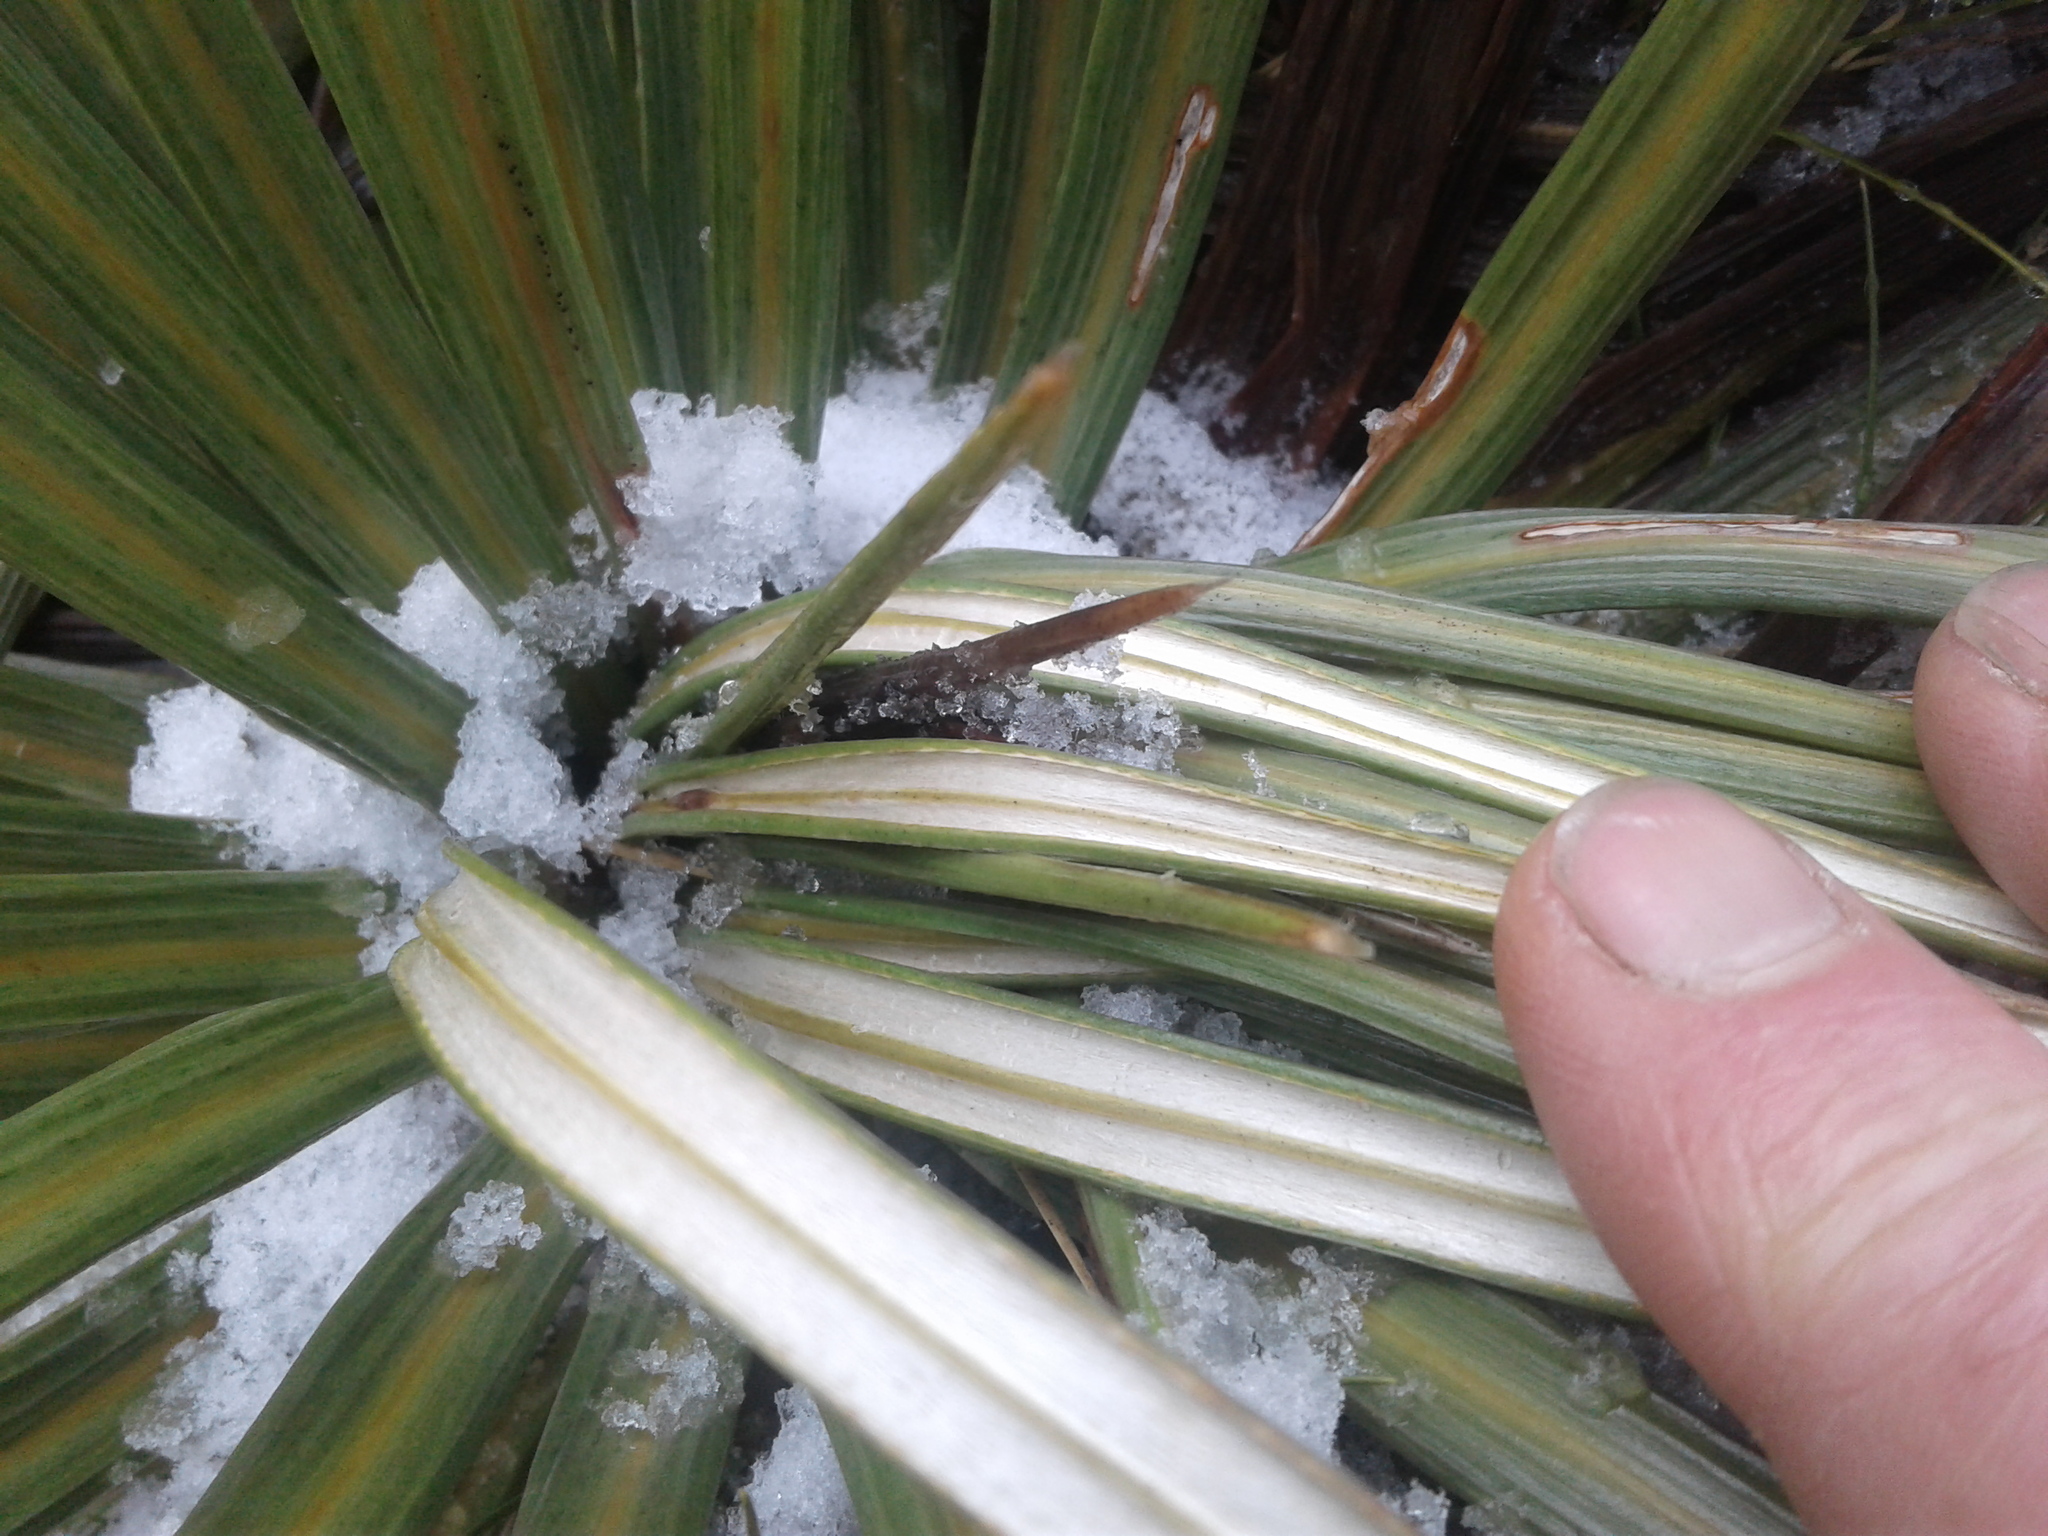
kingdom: Plantae
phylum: Tracheophyta
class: Magnoliopsida
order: Asterales
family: Asteraceae
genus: Celmisia
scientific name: Celmisia armstrongii
